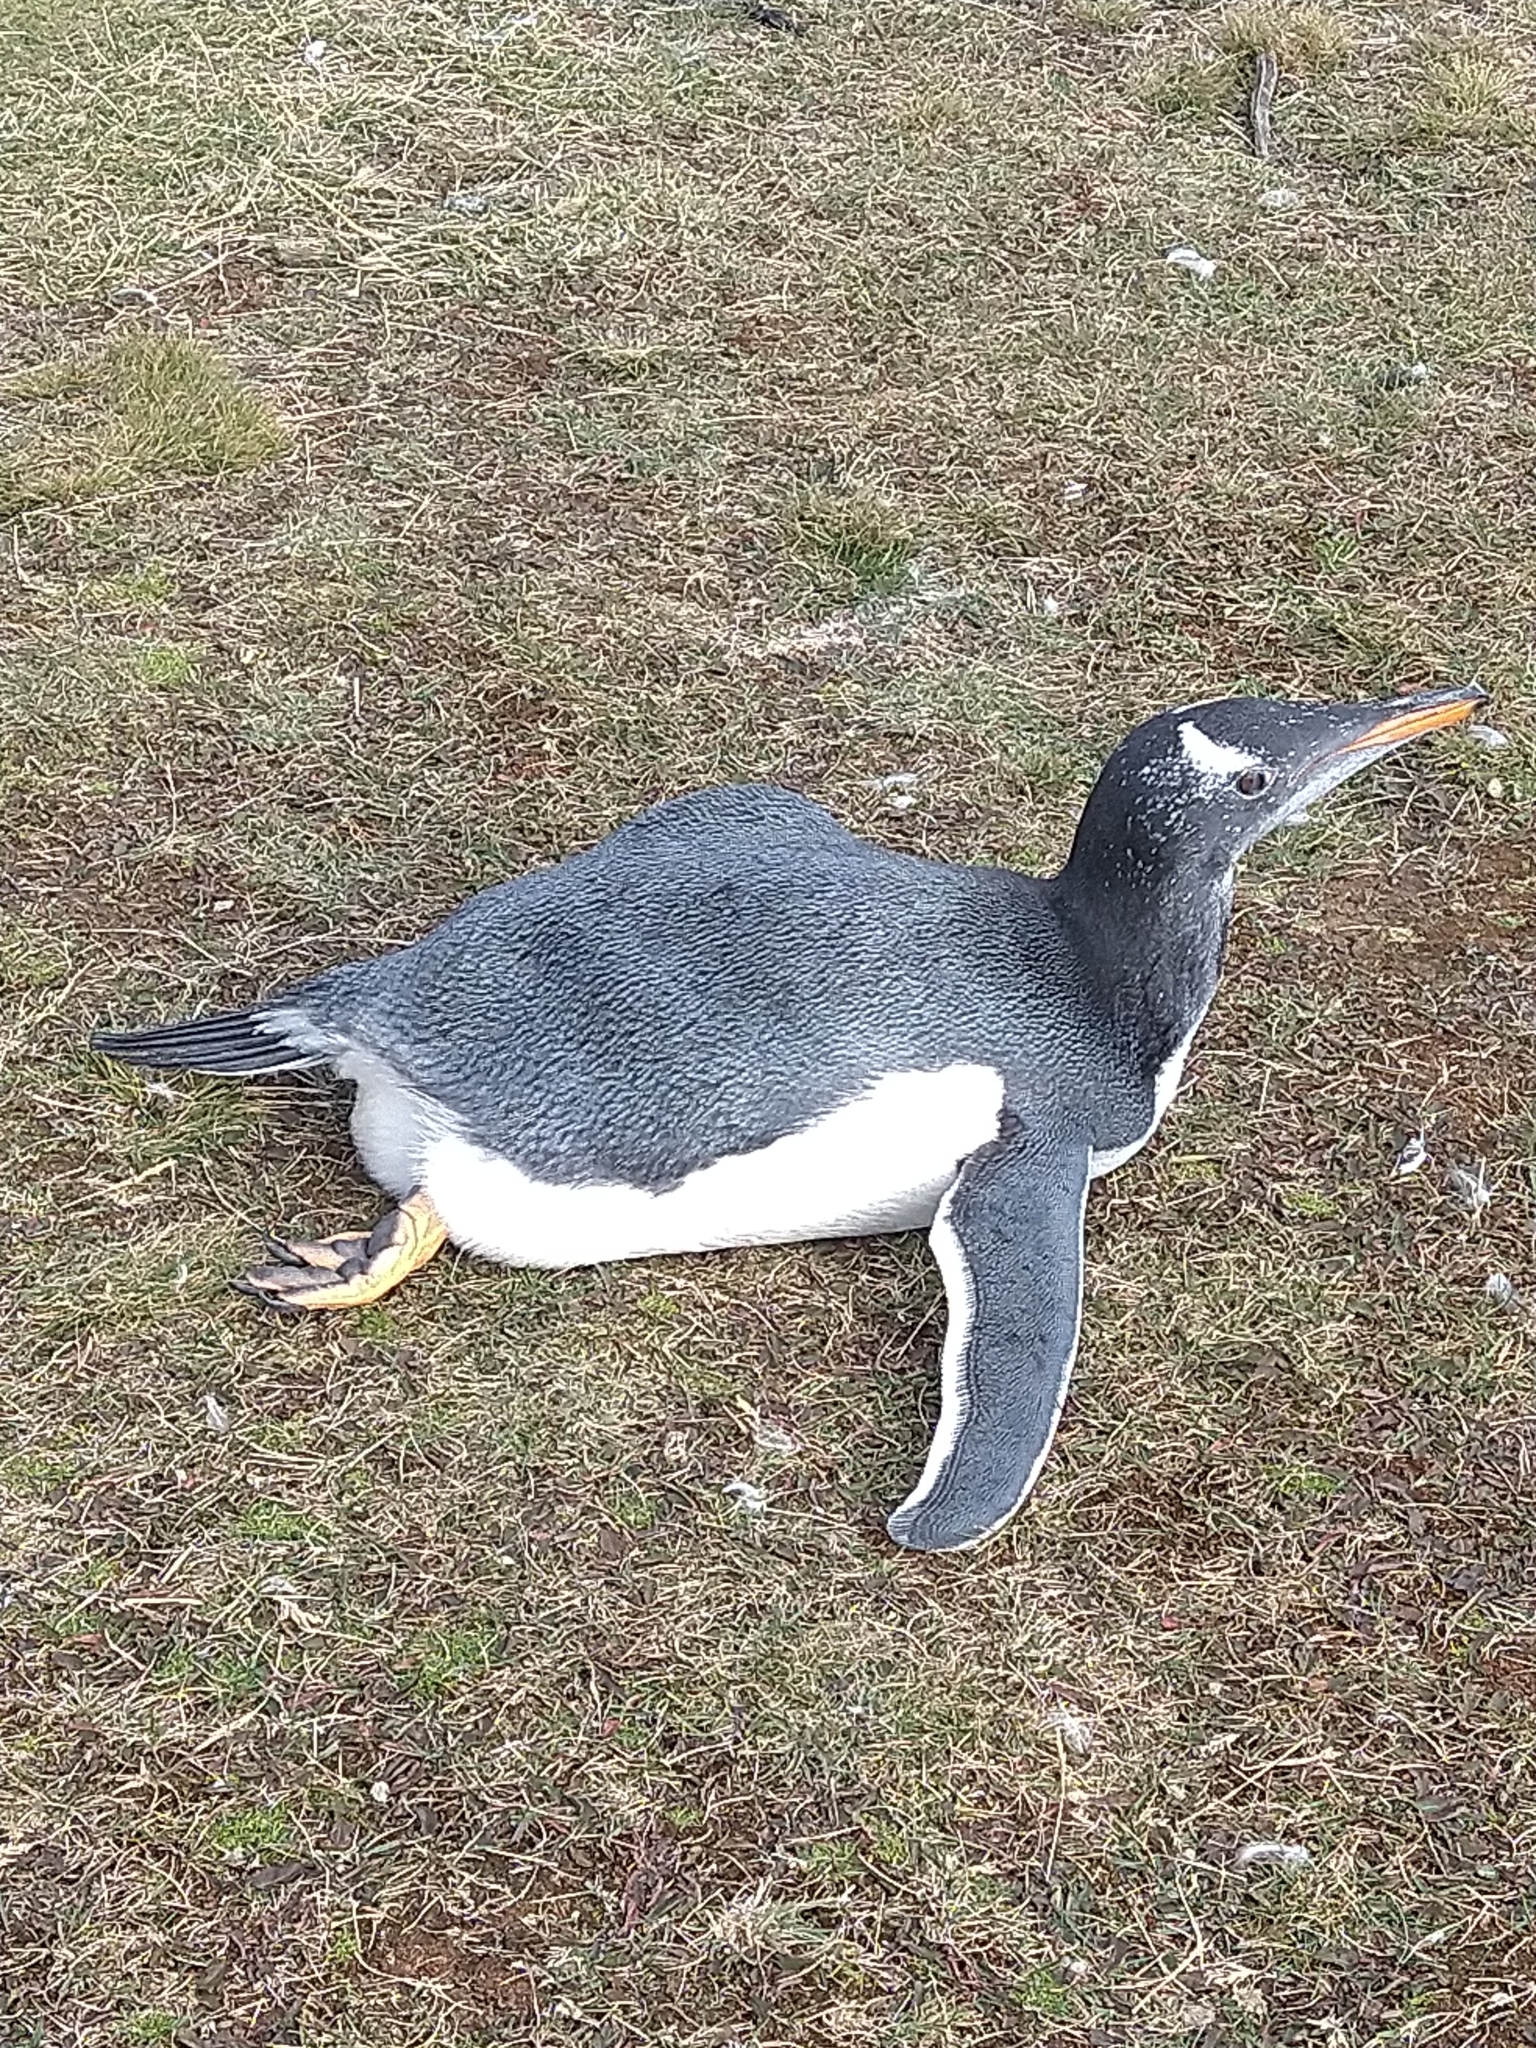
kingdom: Animalia
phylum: Chordata
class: Aves
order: Sphenisciformes
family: Spheniscidae
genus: Pygoscelis
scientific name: Pygoscelis papua
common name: Gentoo penguin
